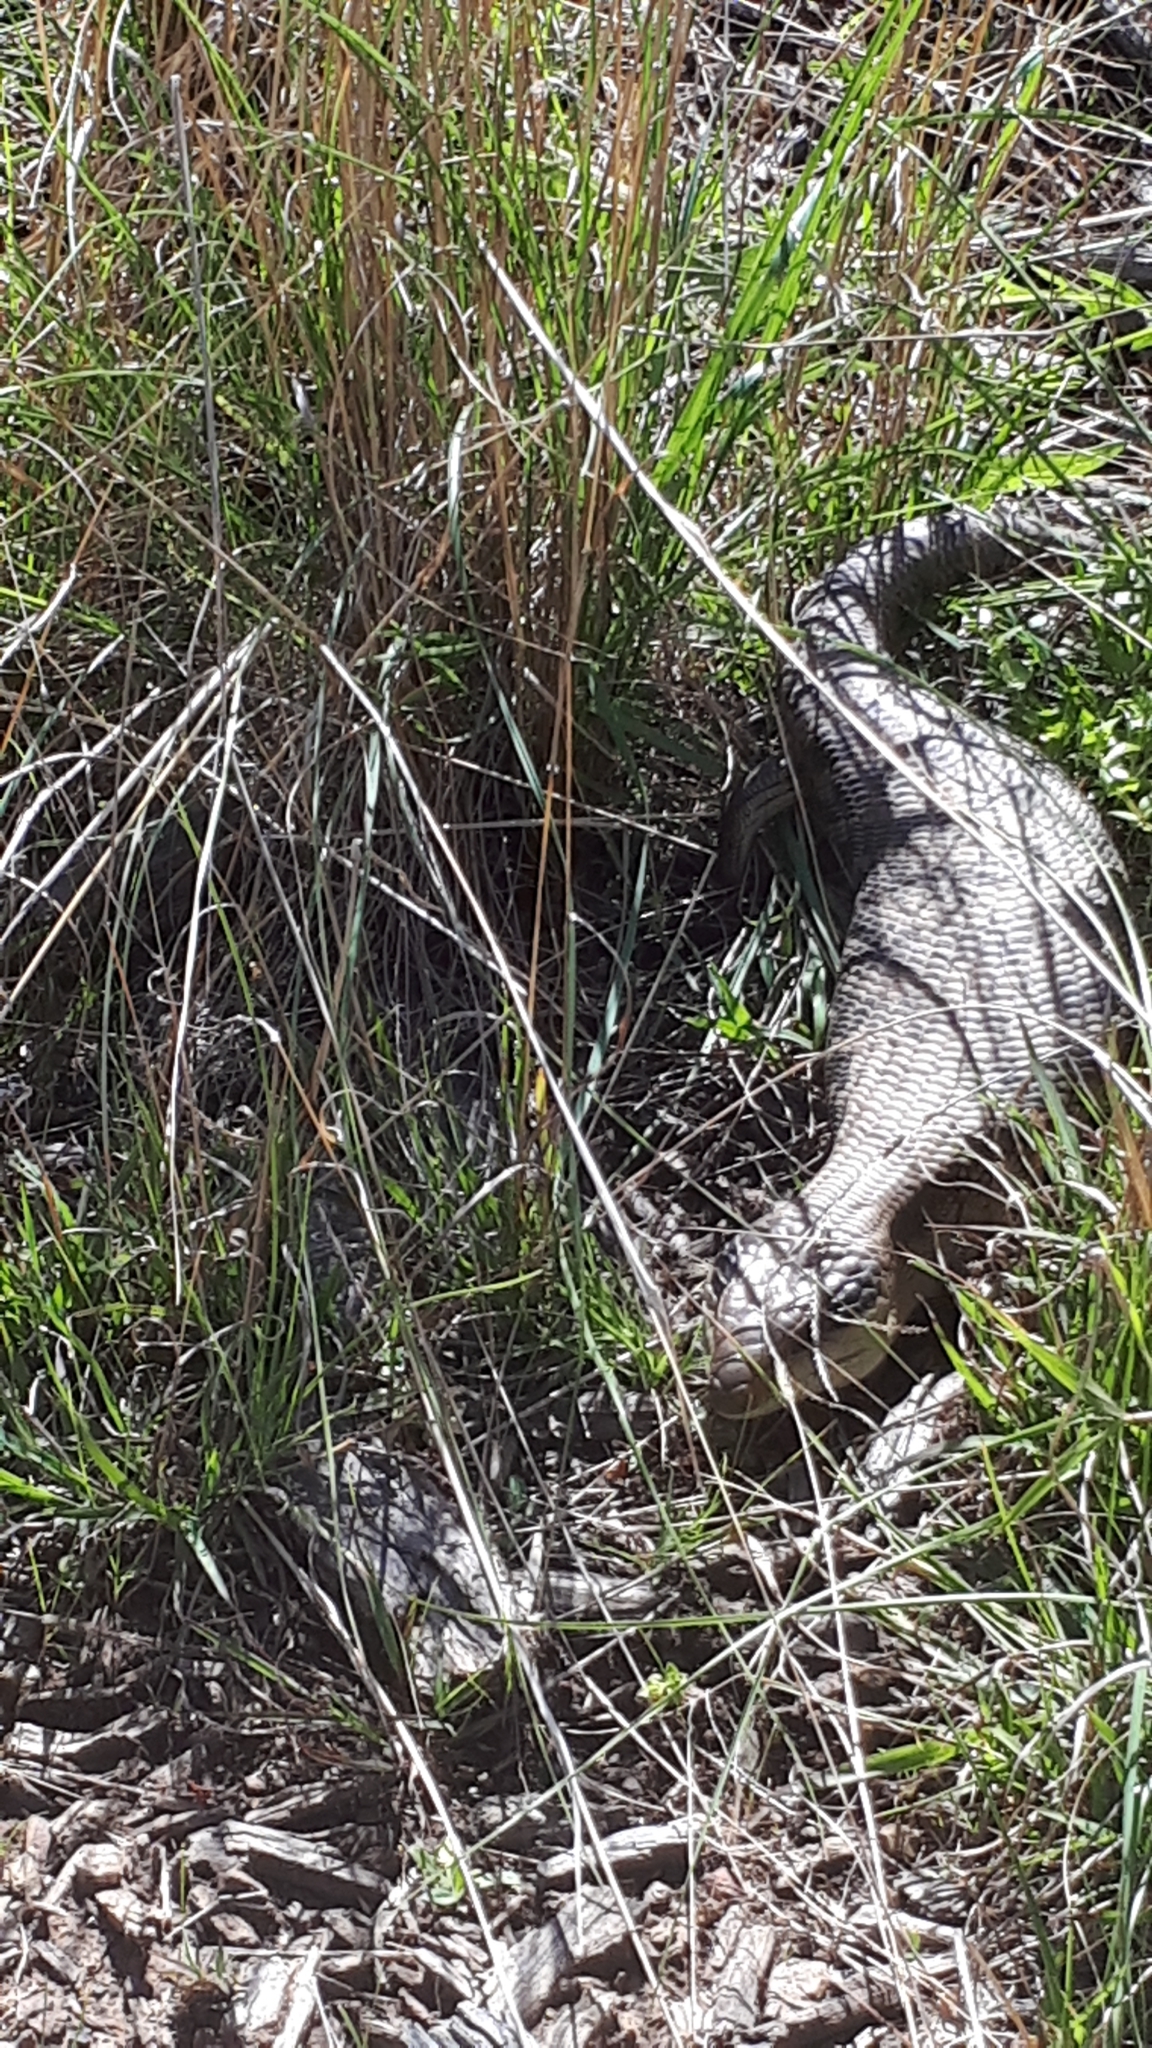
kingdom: Animalia
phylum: Chordata
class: Squamata
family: Scincidae
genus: Tiliqua
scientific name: Tiliqua scincoides
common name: Common bluetongue
